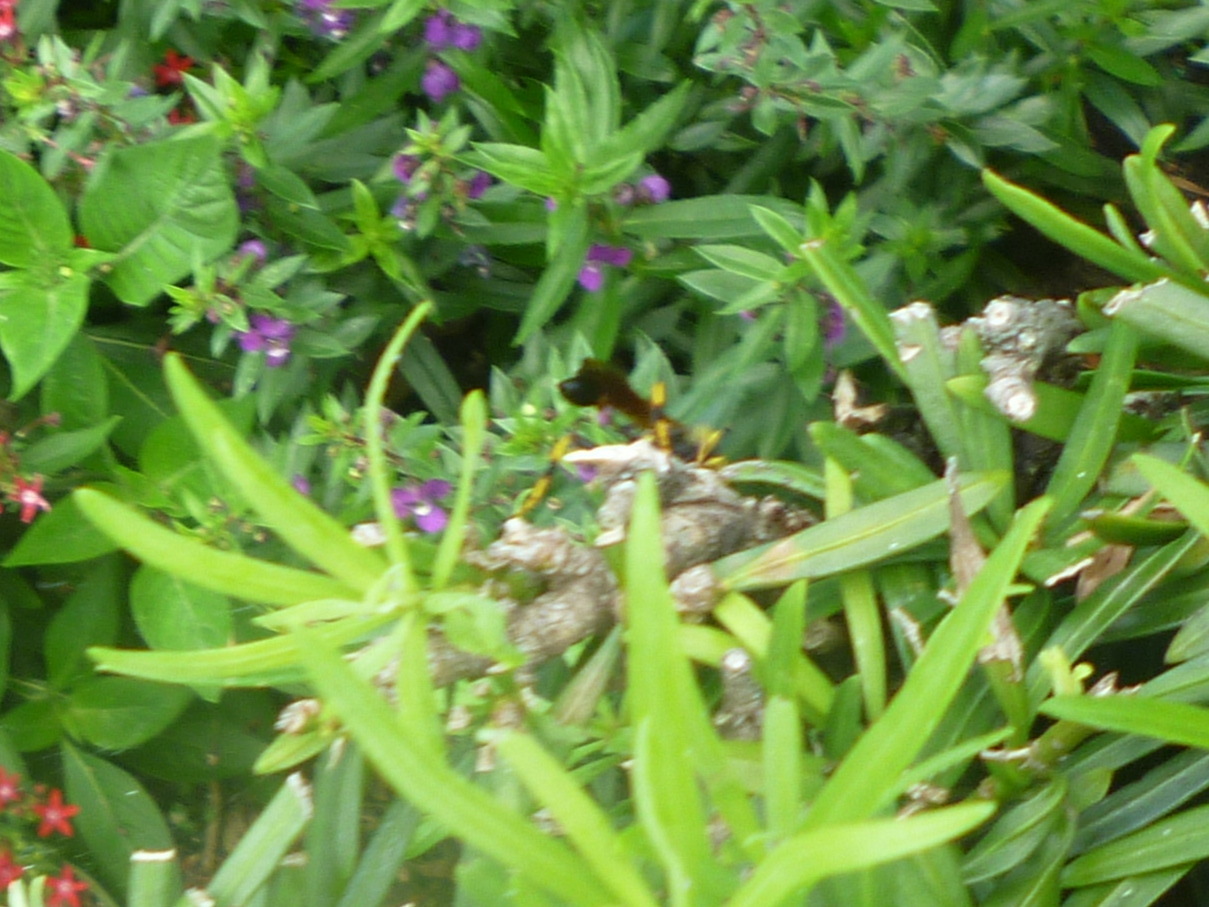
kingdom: Animalia
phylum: Arthropoda
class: Insecta
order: Hymenoptera
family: Sphecidae
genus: Sceliphron
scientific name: Sceliphron caementarium
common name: Mud dauber
